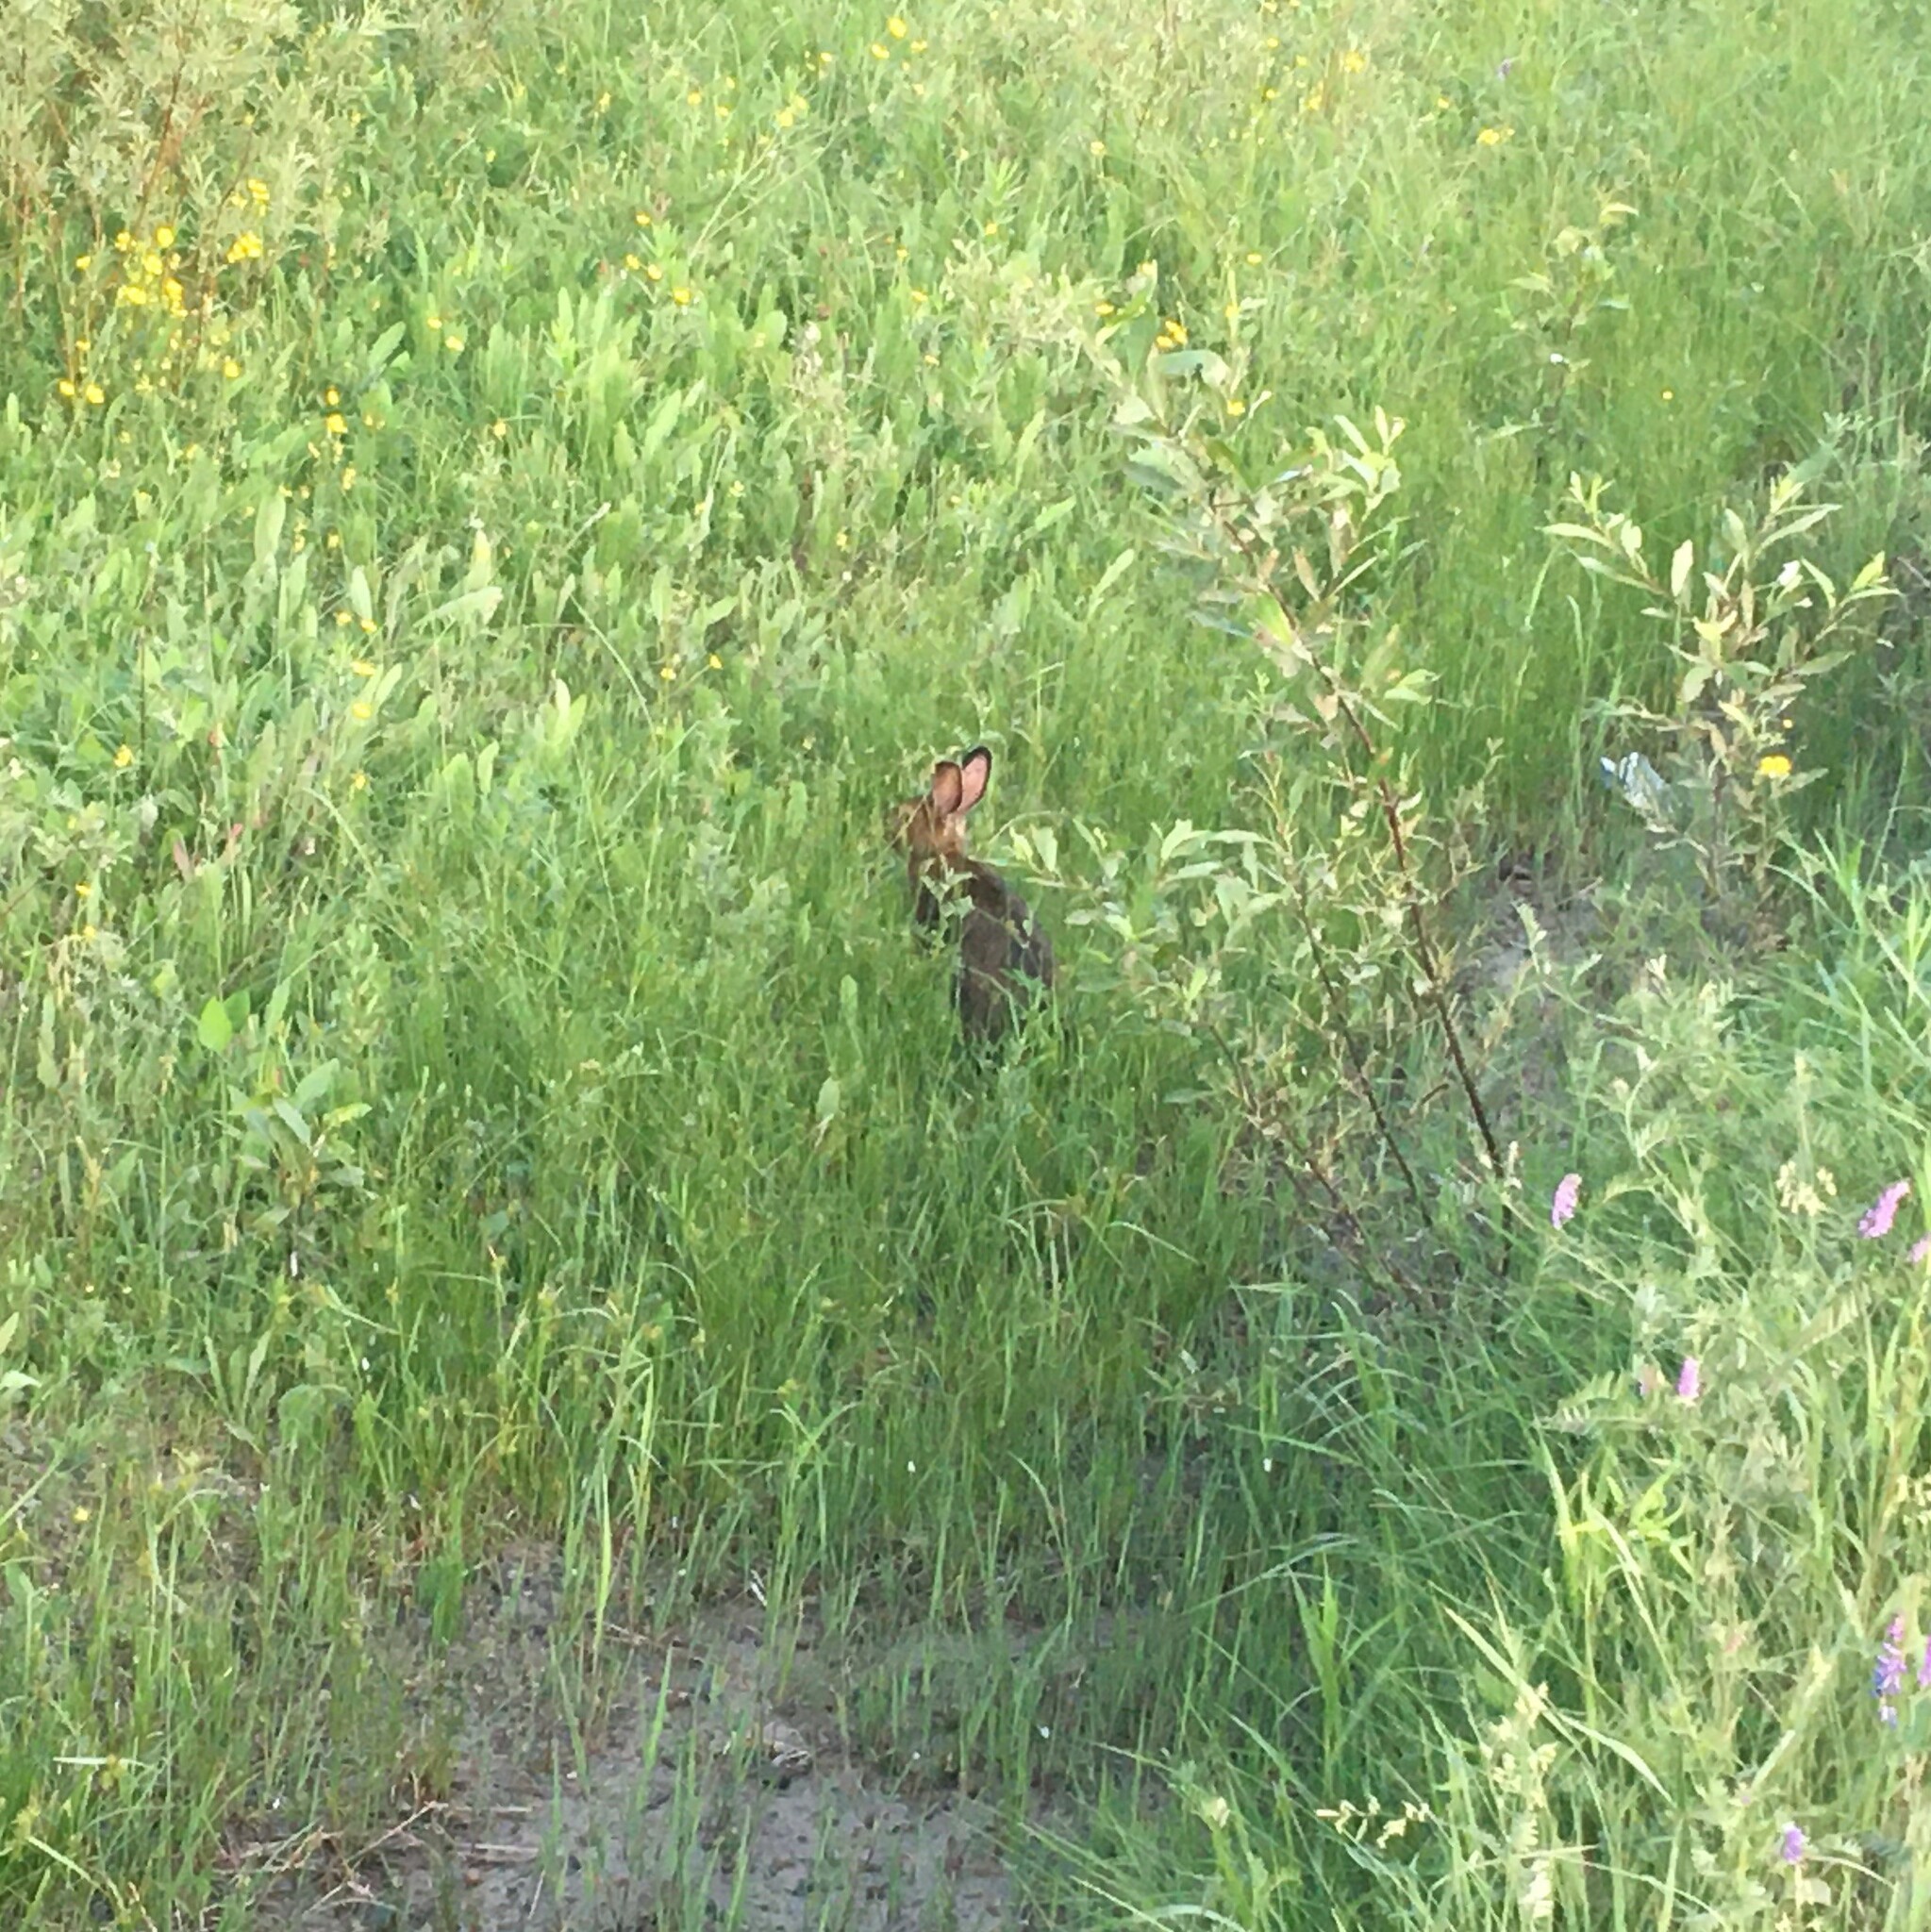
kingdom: Animalia
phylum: Chordata
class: Mammalia
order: Lagomorpha
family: Leporidae
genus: Lepus
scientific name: Lepus americanus
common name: Snowshoe hare
